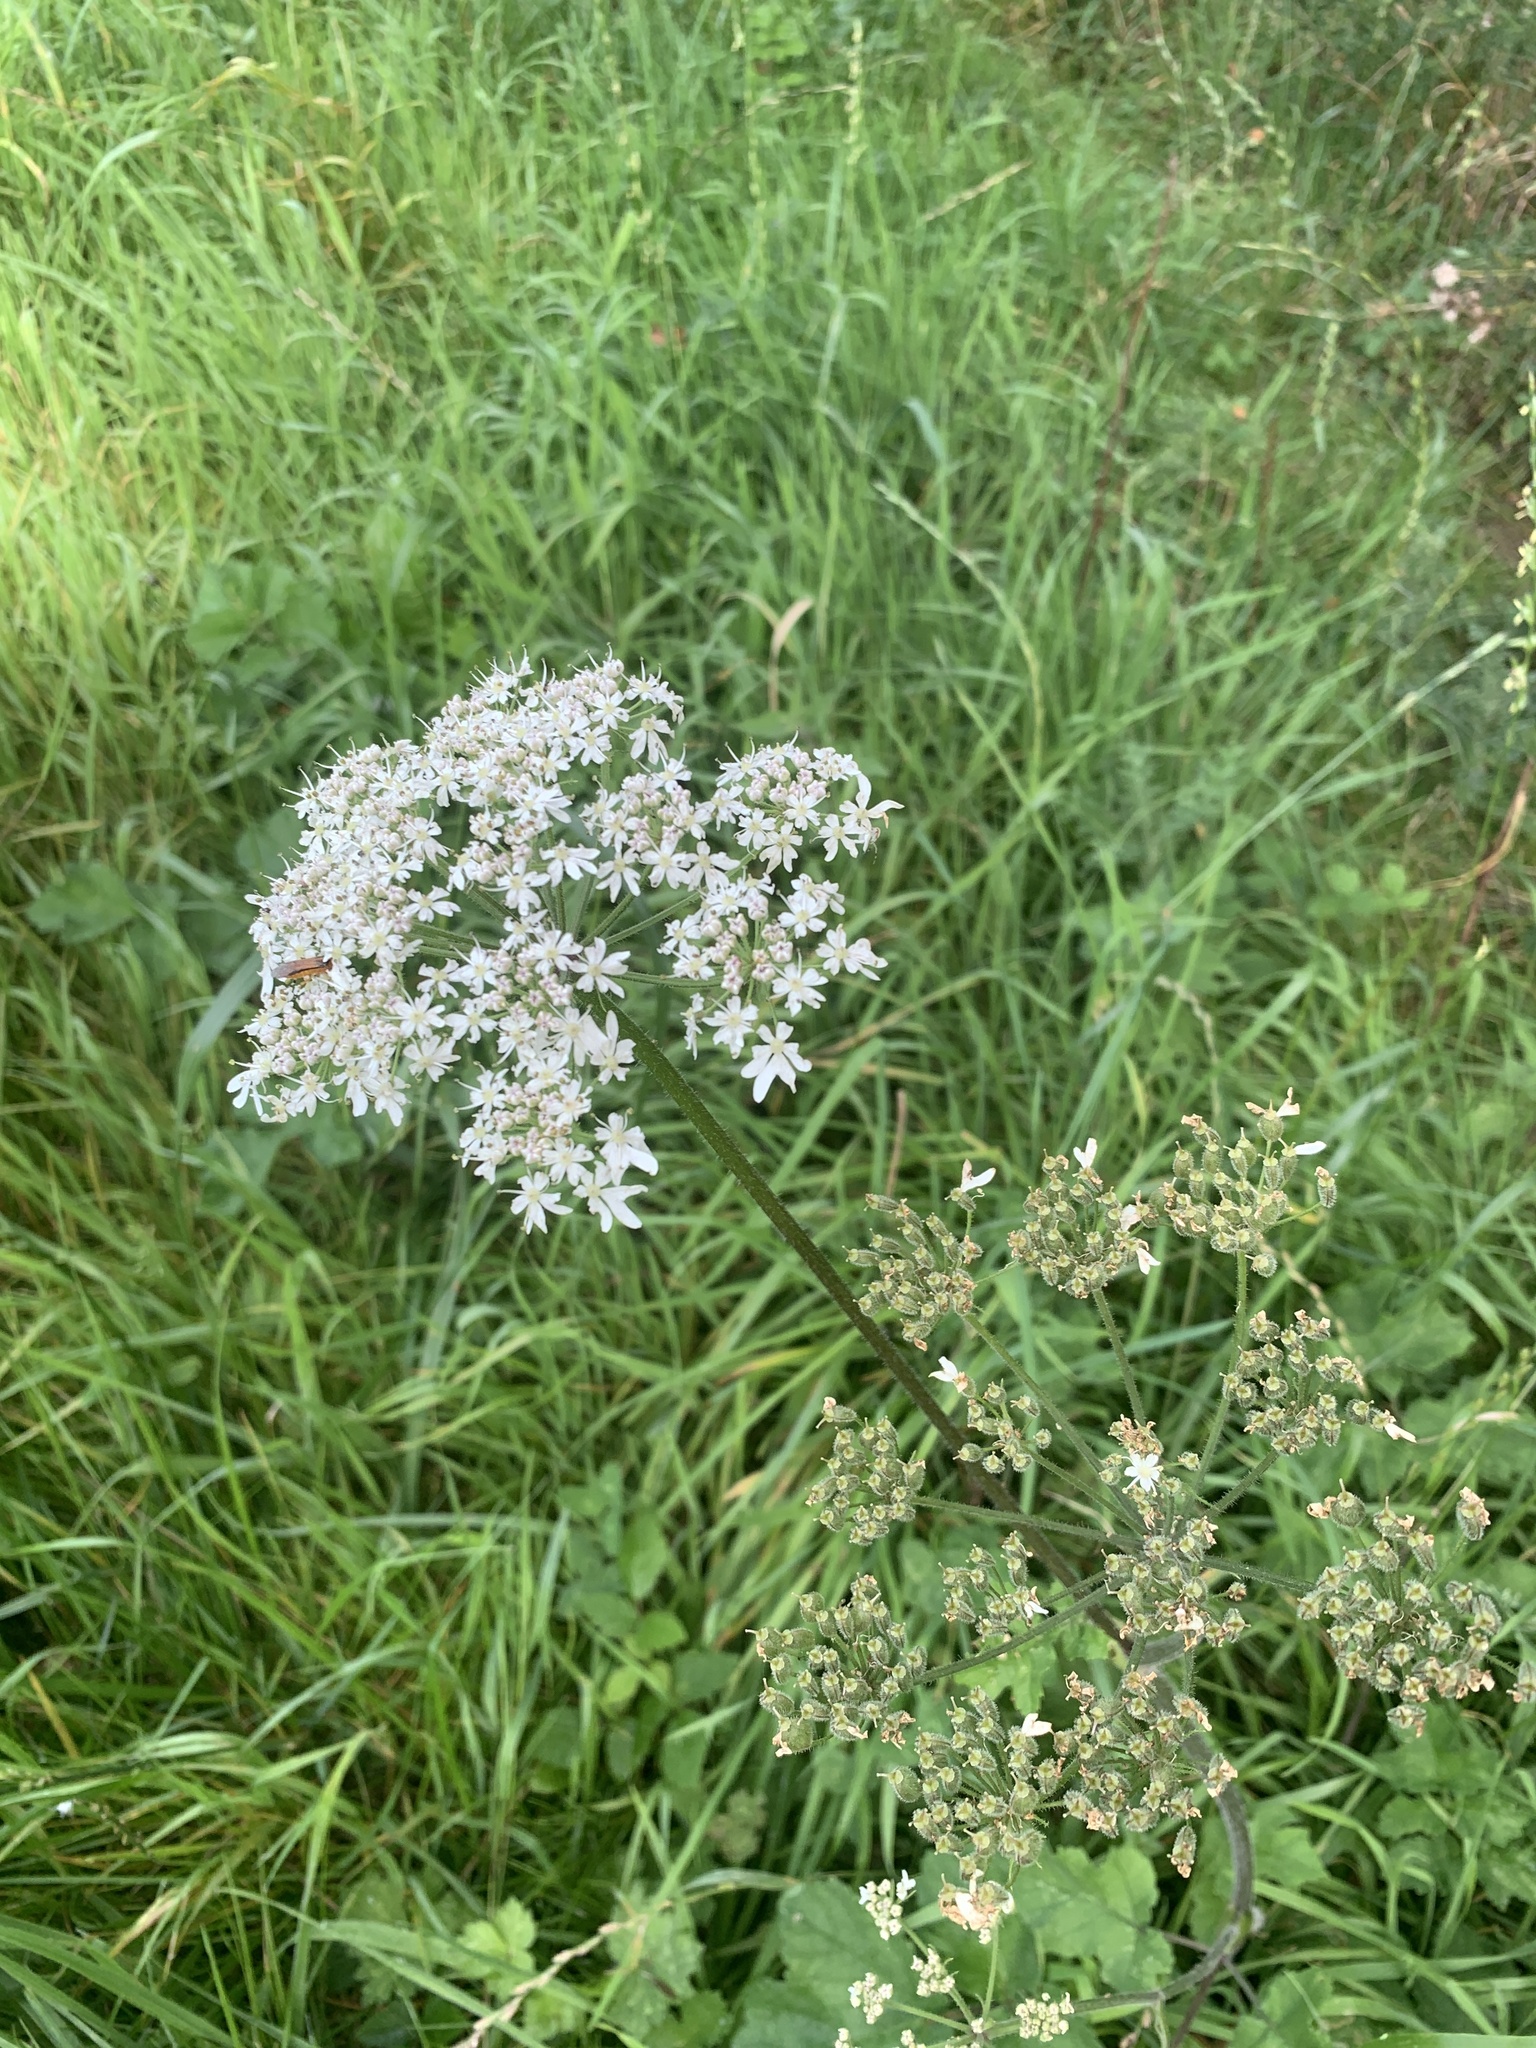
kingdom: Plantae
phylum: Tracheophyta
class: Magnoliopsida
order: Apiales
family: Apiaceae
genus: Heracleum
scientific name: Heracleum sphondylium
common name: Hogweed
